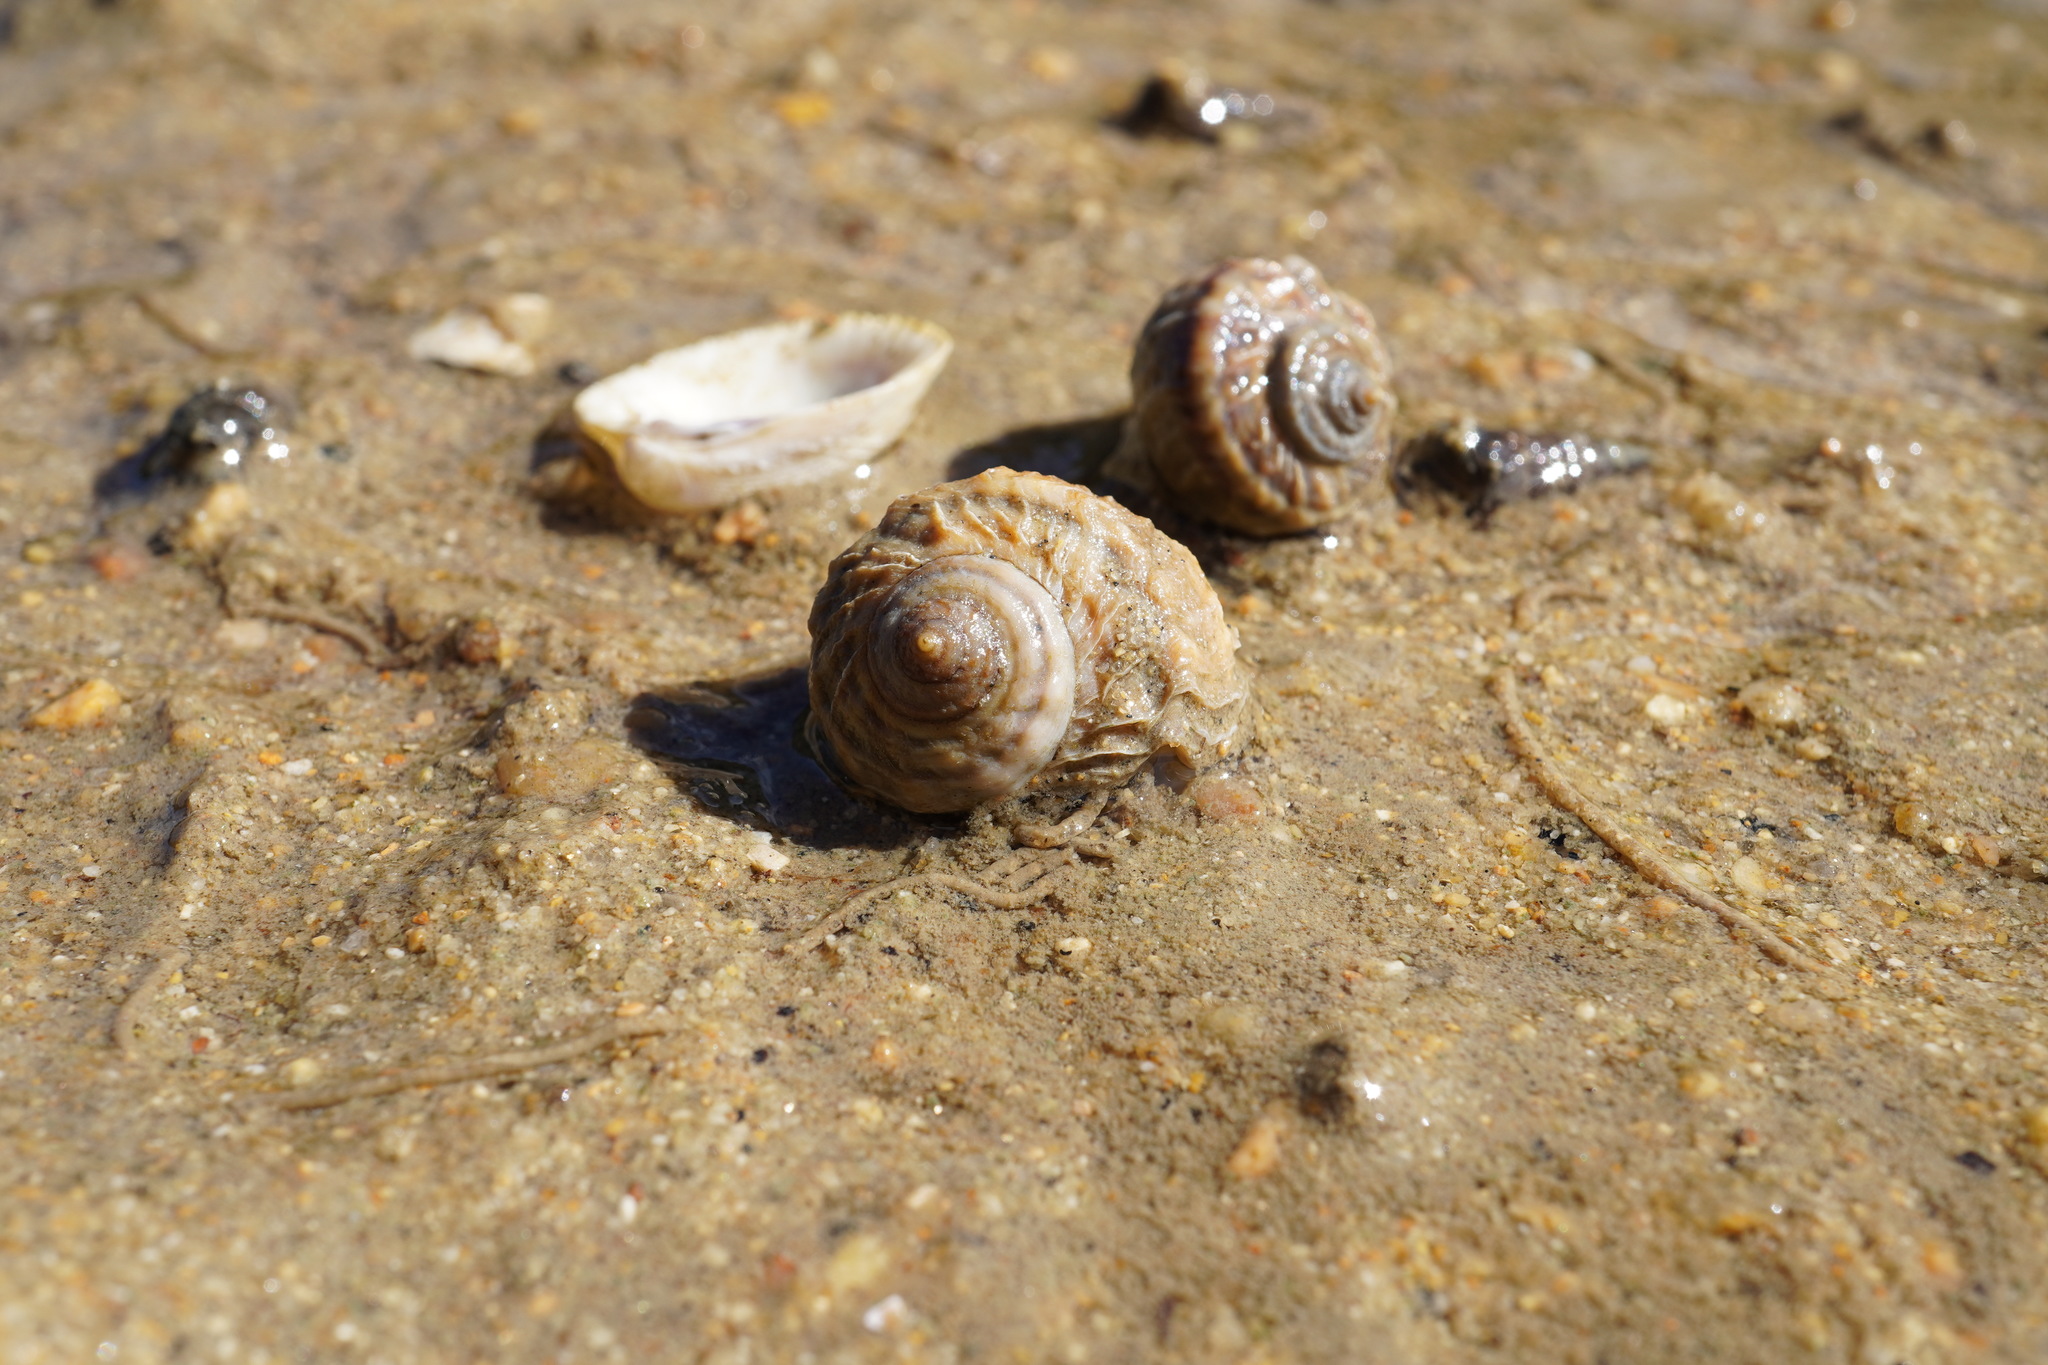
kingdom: Animalia
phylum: Mollusca
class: Gastropoda
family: Amphibolidae
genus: Amphibola
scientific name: Amphibola crenata
